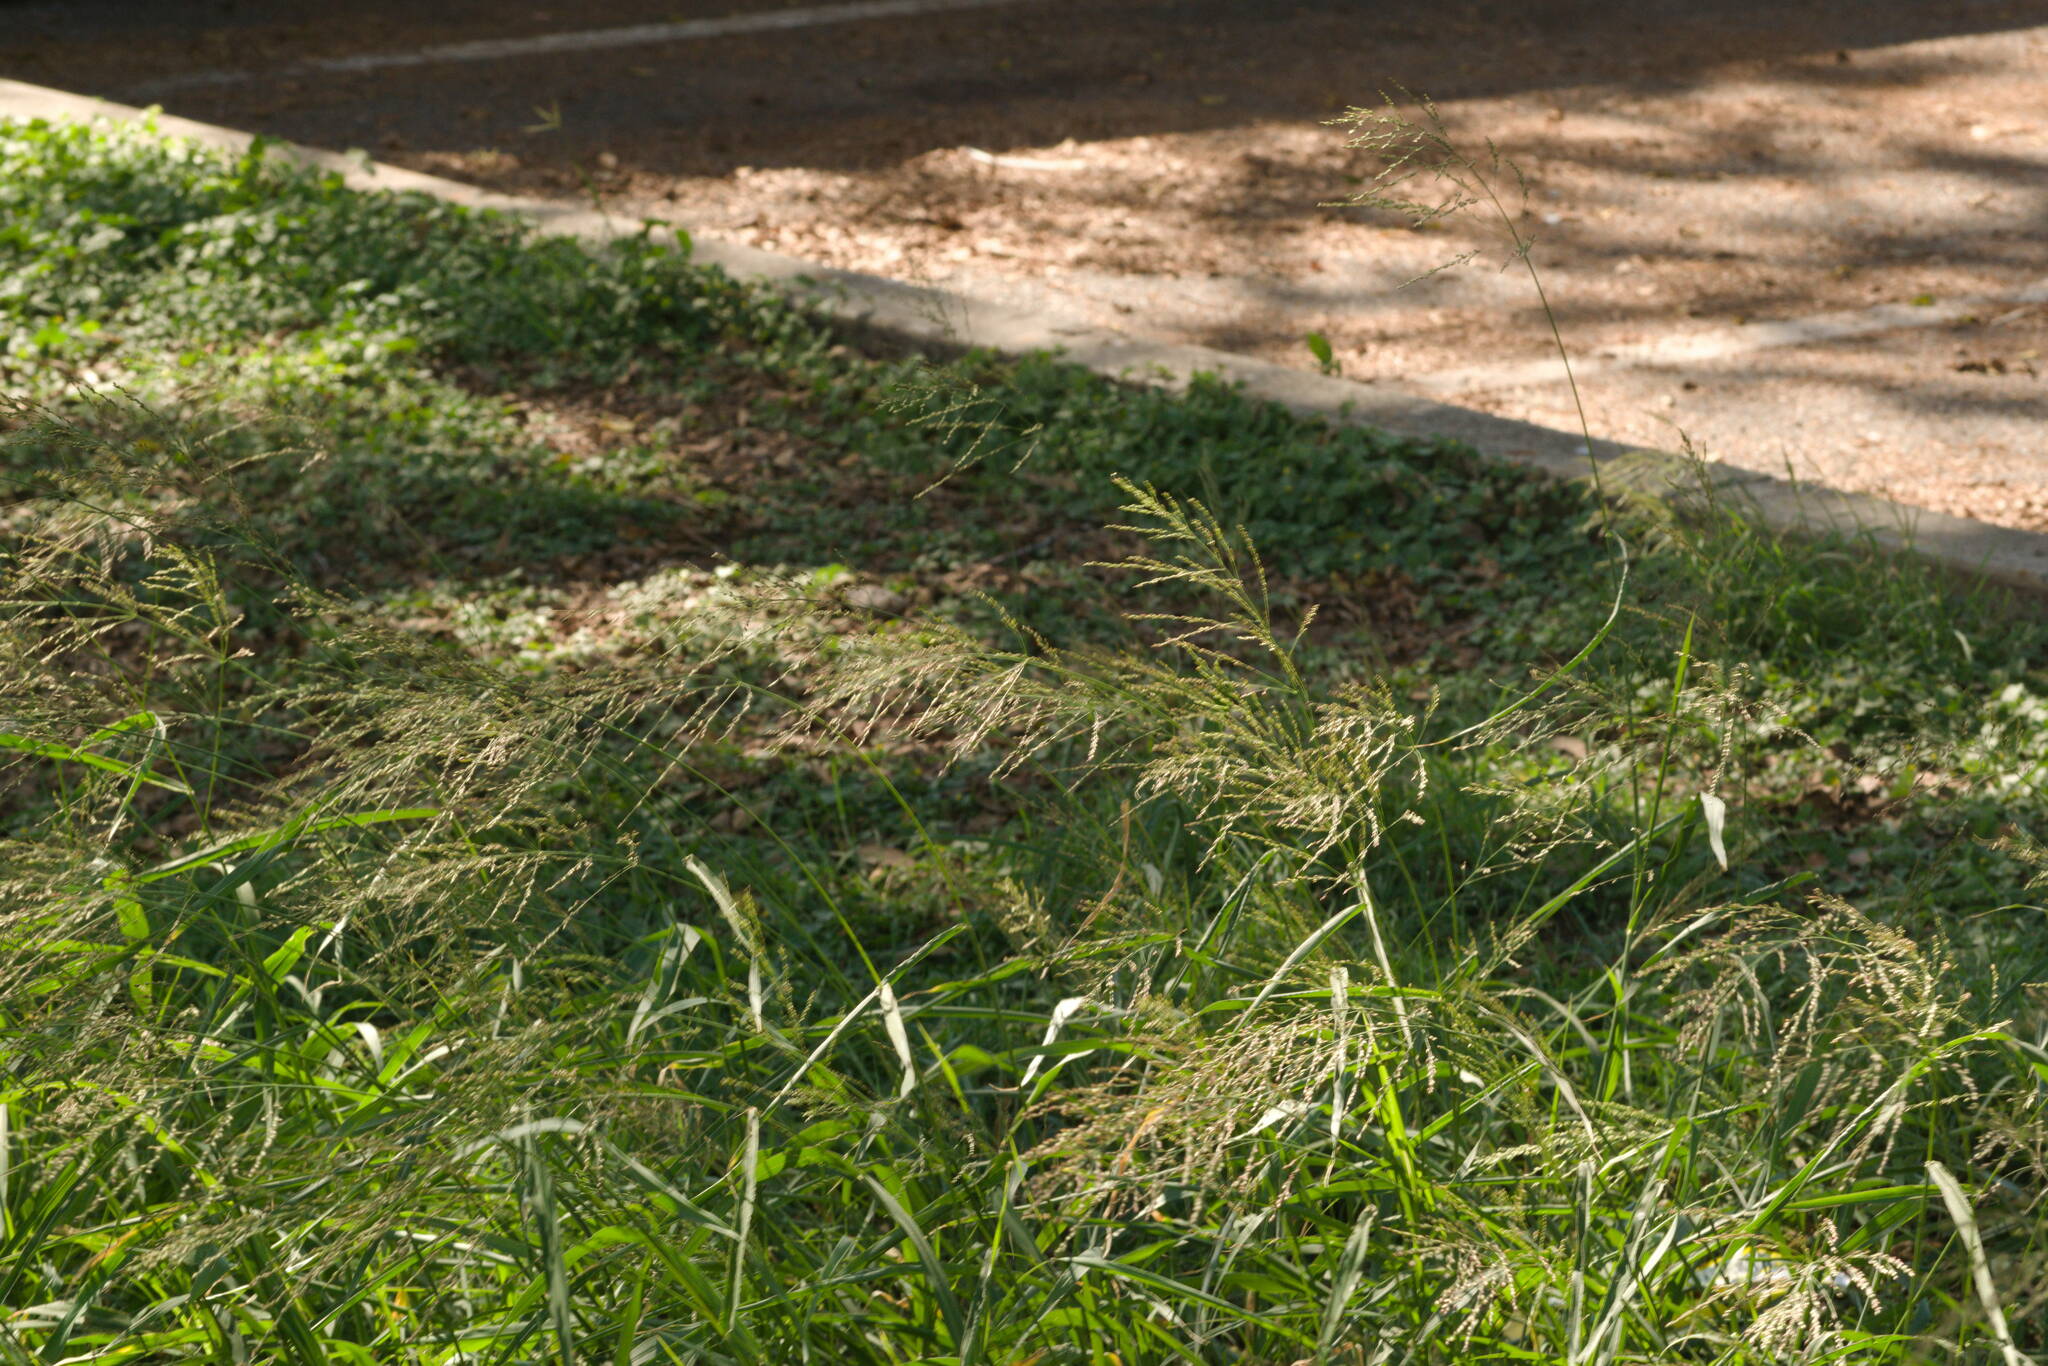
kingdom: Plantae
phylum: Tracheophyta
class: Liliopsida
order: Poales
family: Poaceae
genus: Megathyrsus
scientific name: Megathyrsus maximus
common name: Guineagrass
